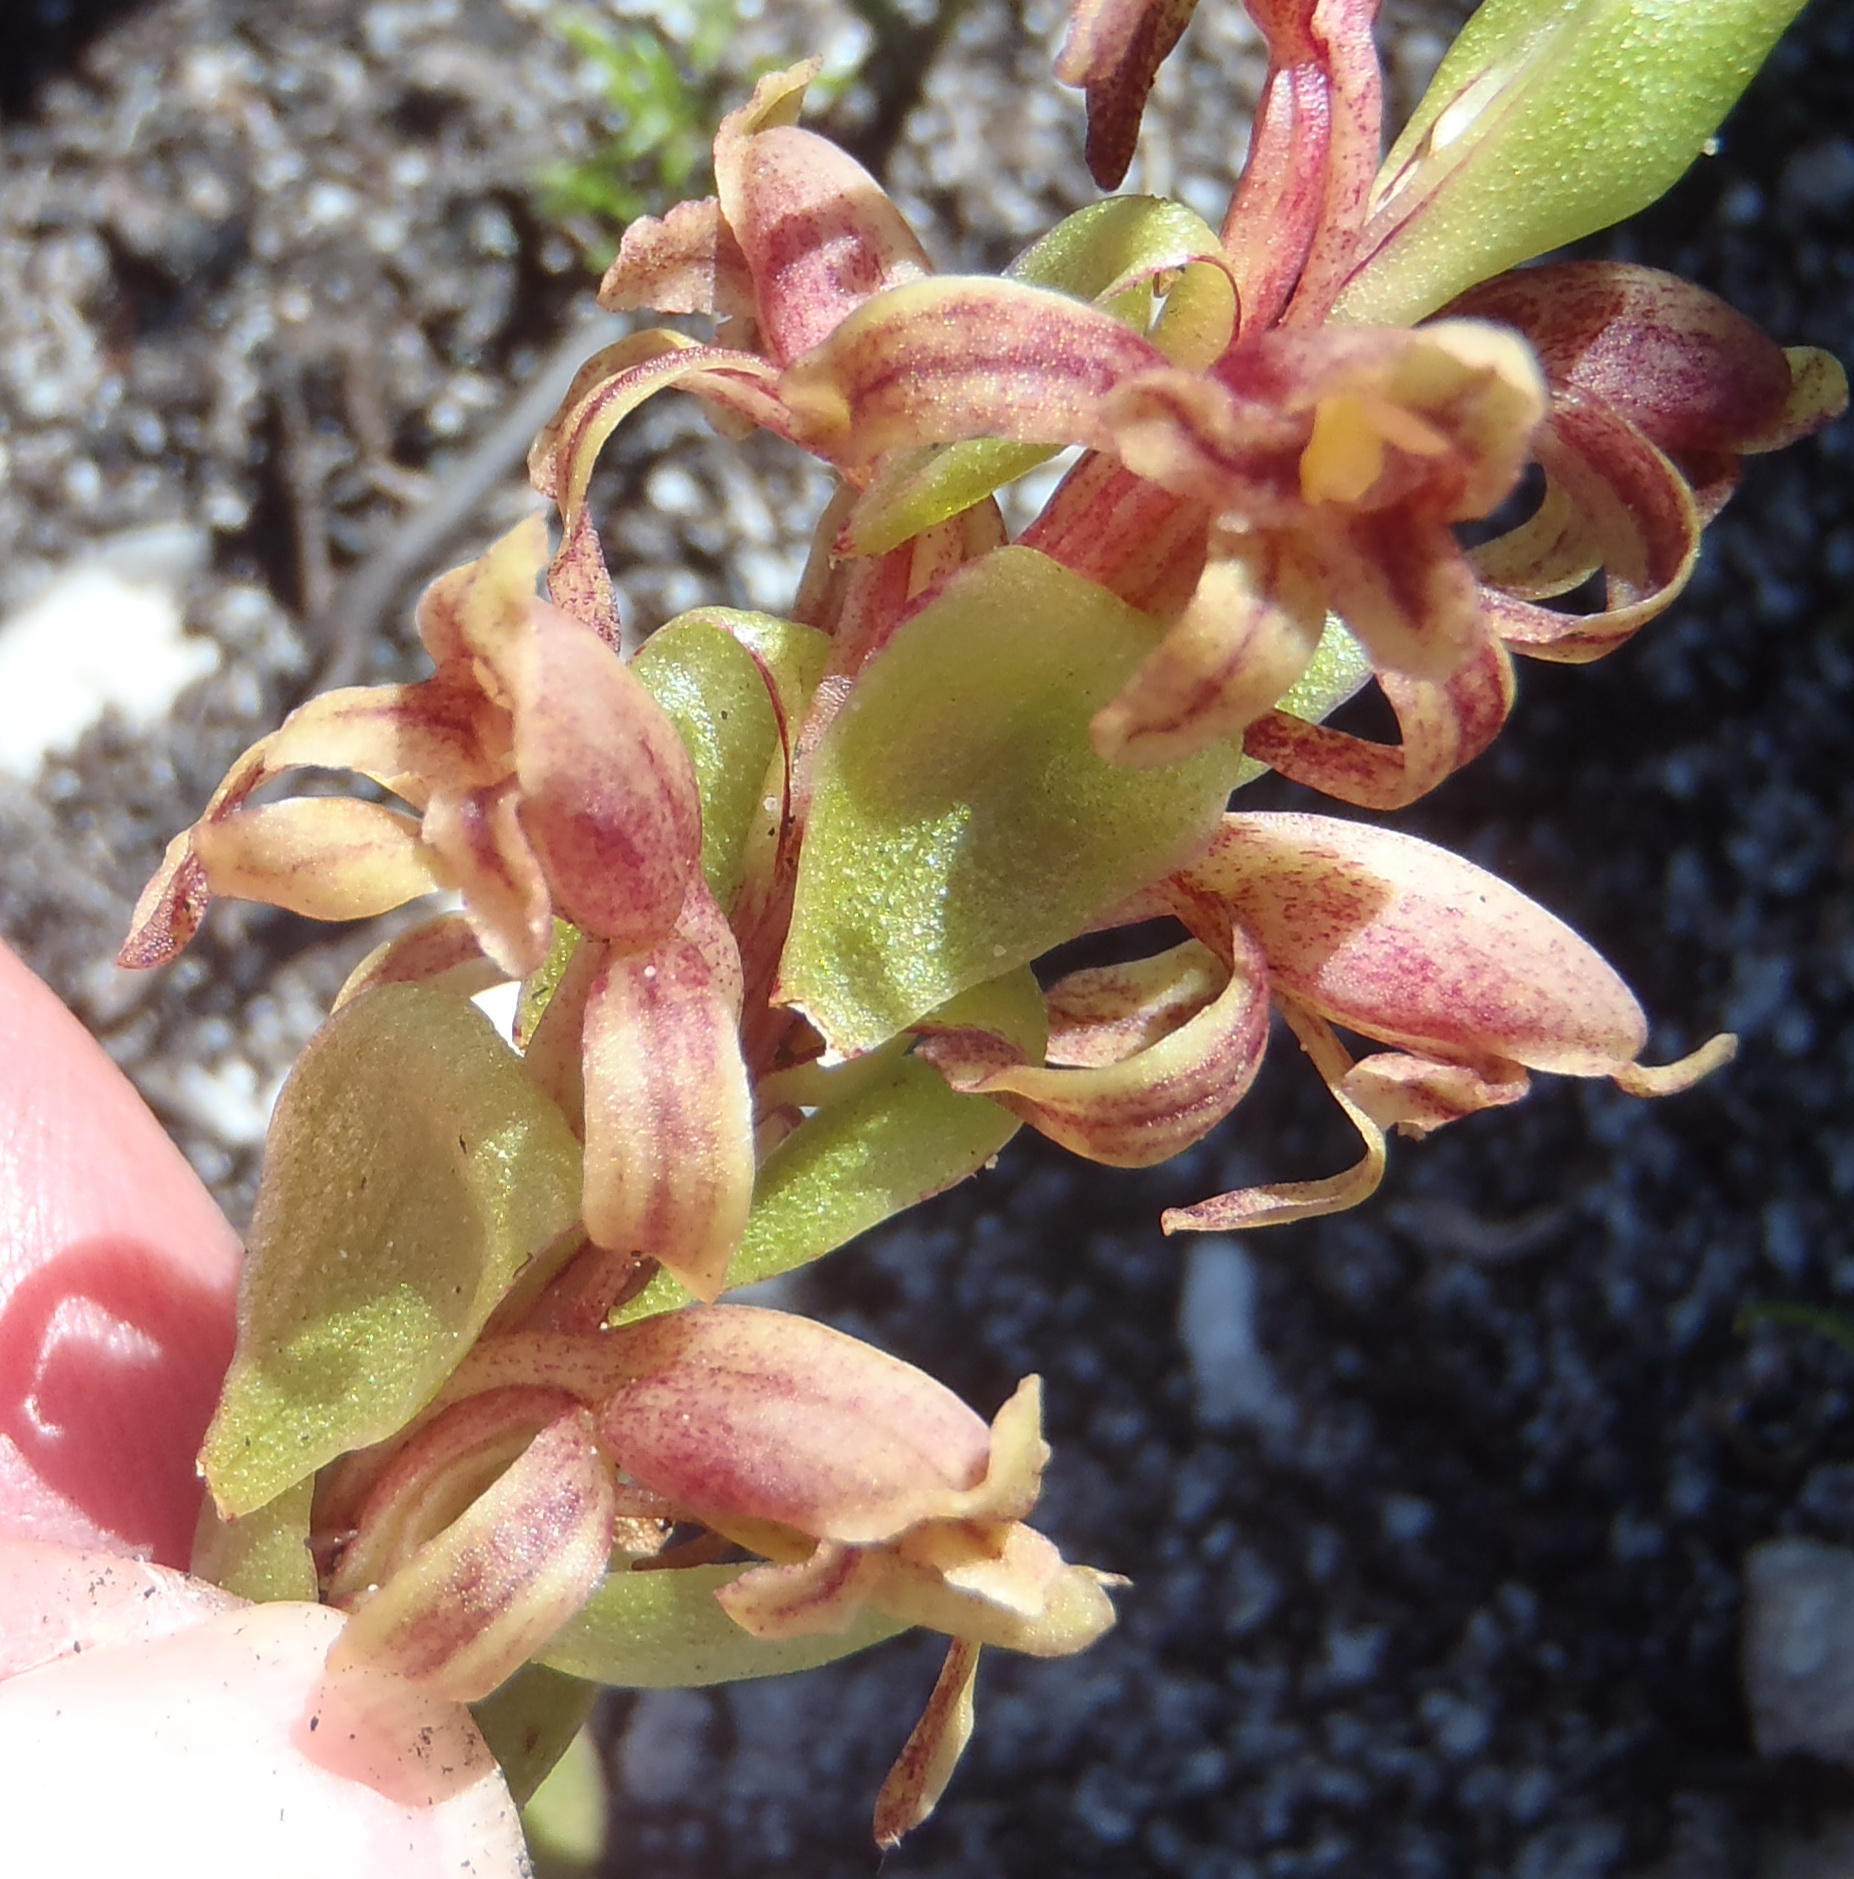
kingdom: Plantae
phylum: Tracheophyta
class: Liliopsida
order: Asparagales
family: Orchidaceae
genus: Satyrium
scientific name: Satyrium lupulinum
